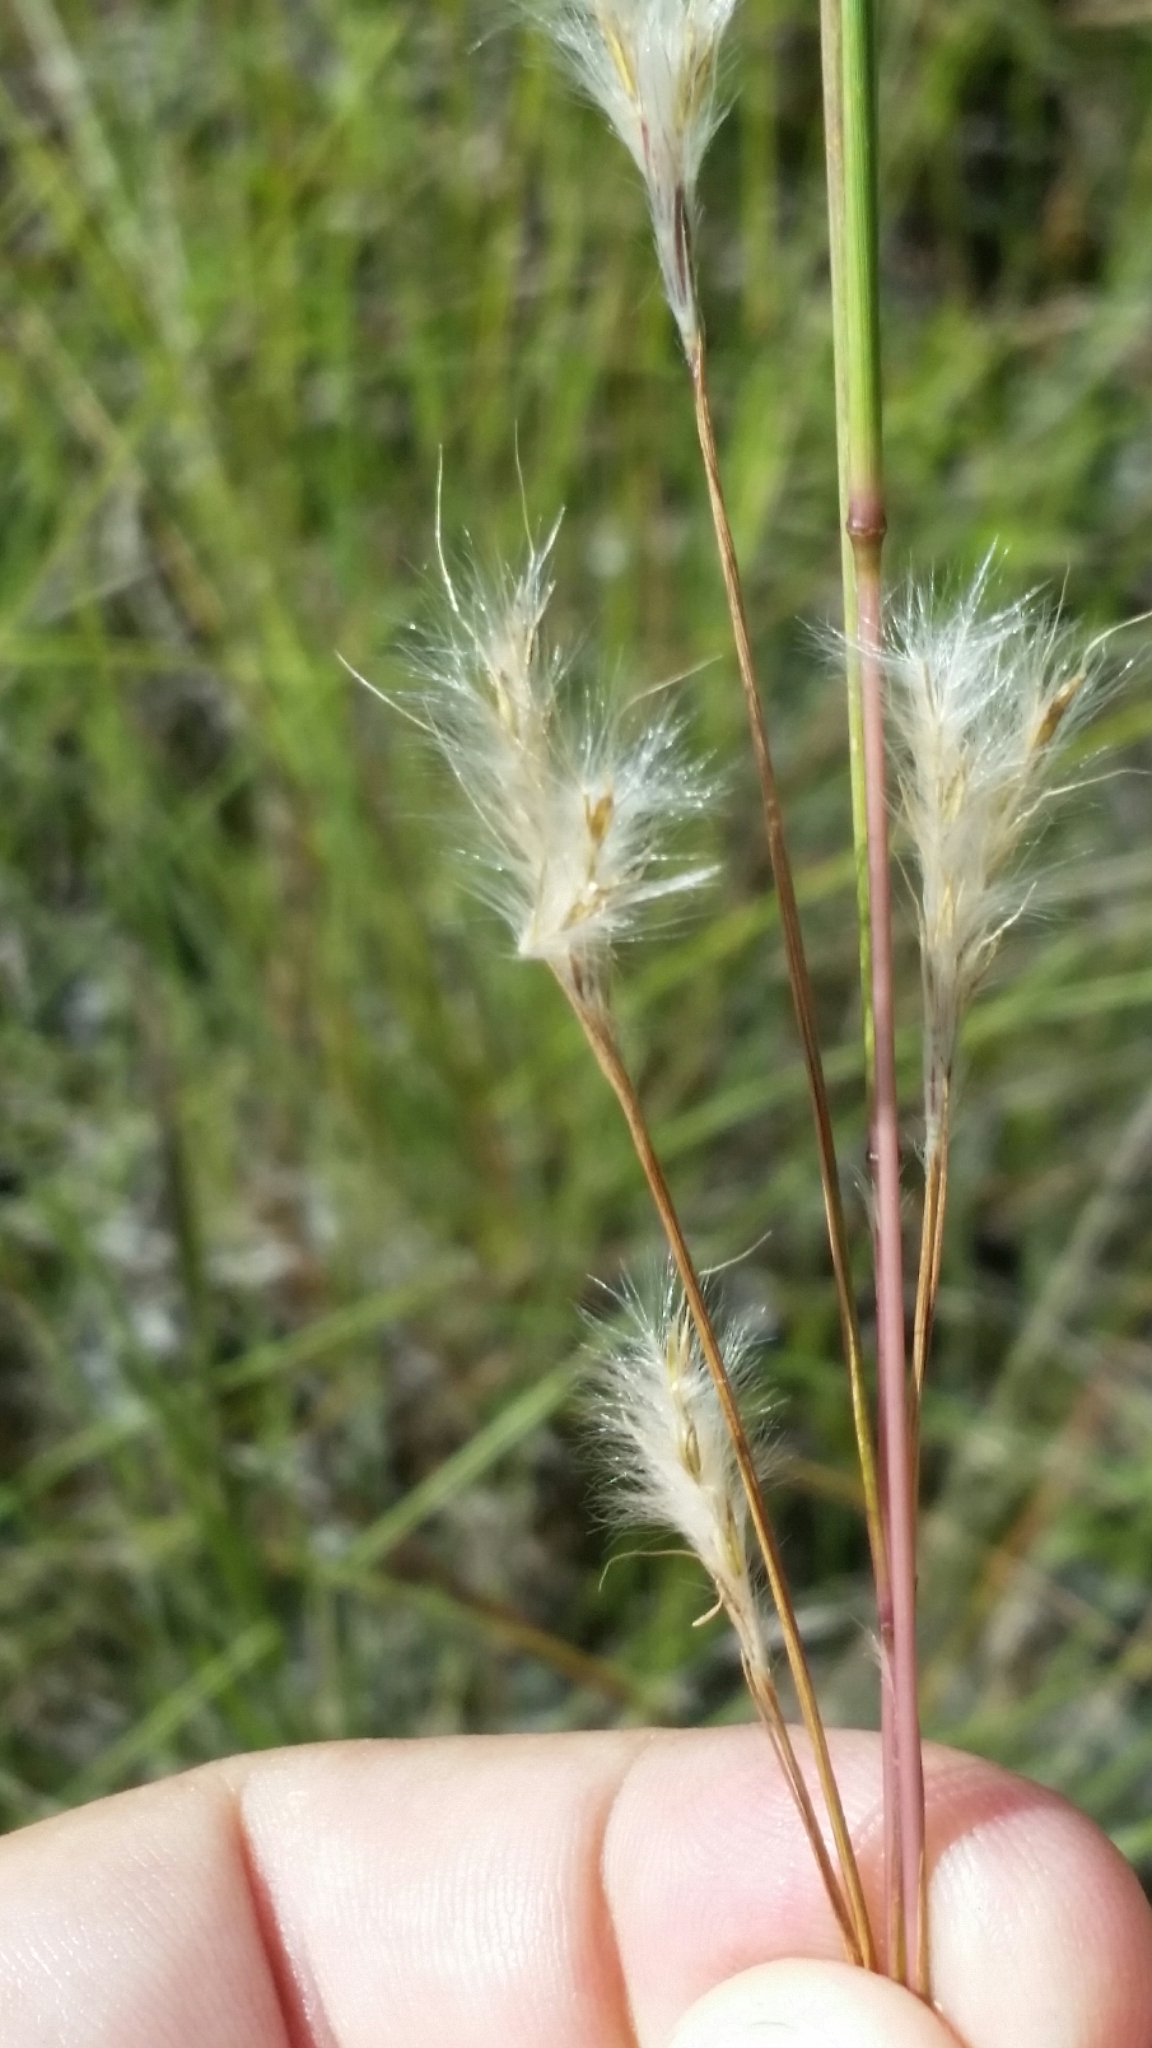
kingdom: Plantae
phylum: Tracheophyta
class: Liliopsida
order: Poales
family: Poaceae
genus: Andropogon
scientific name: Andropogon gyrans
